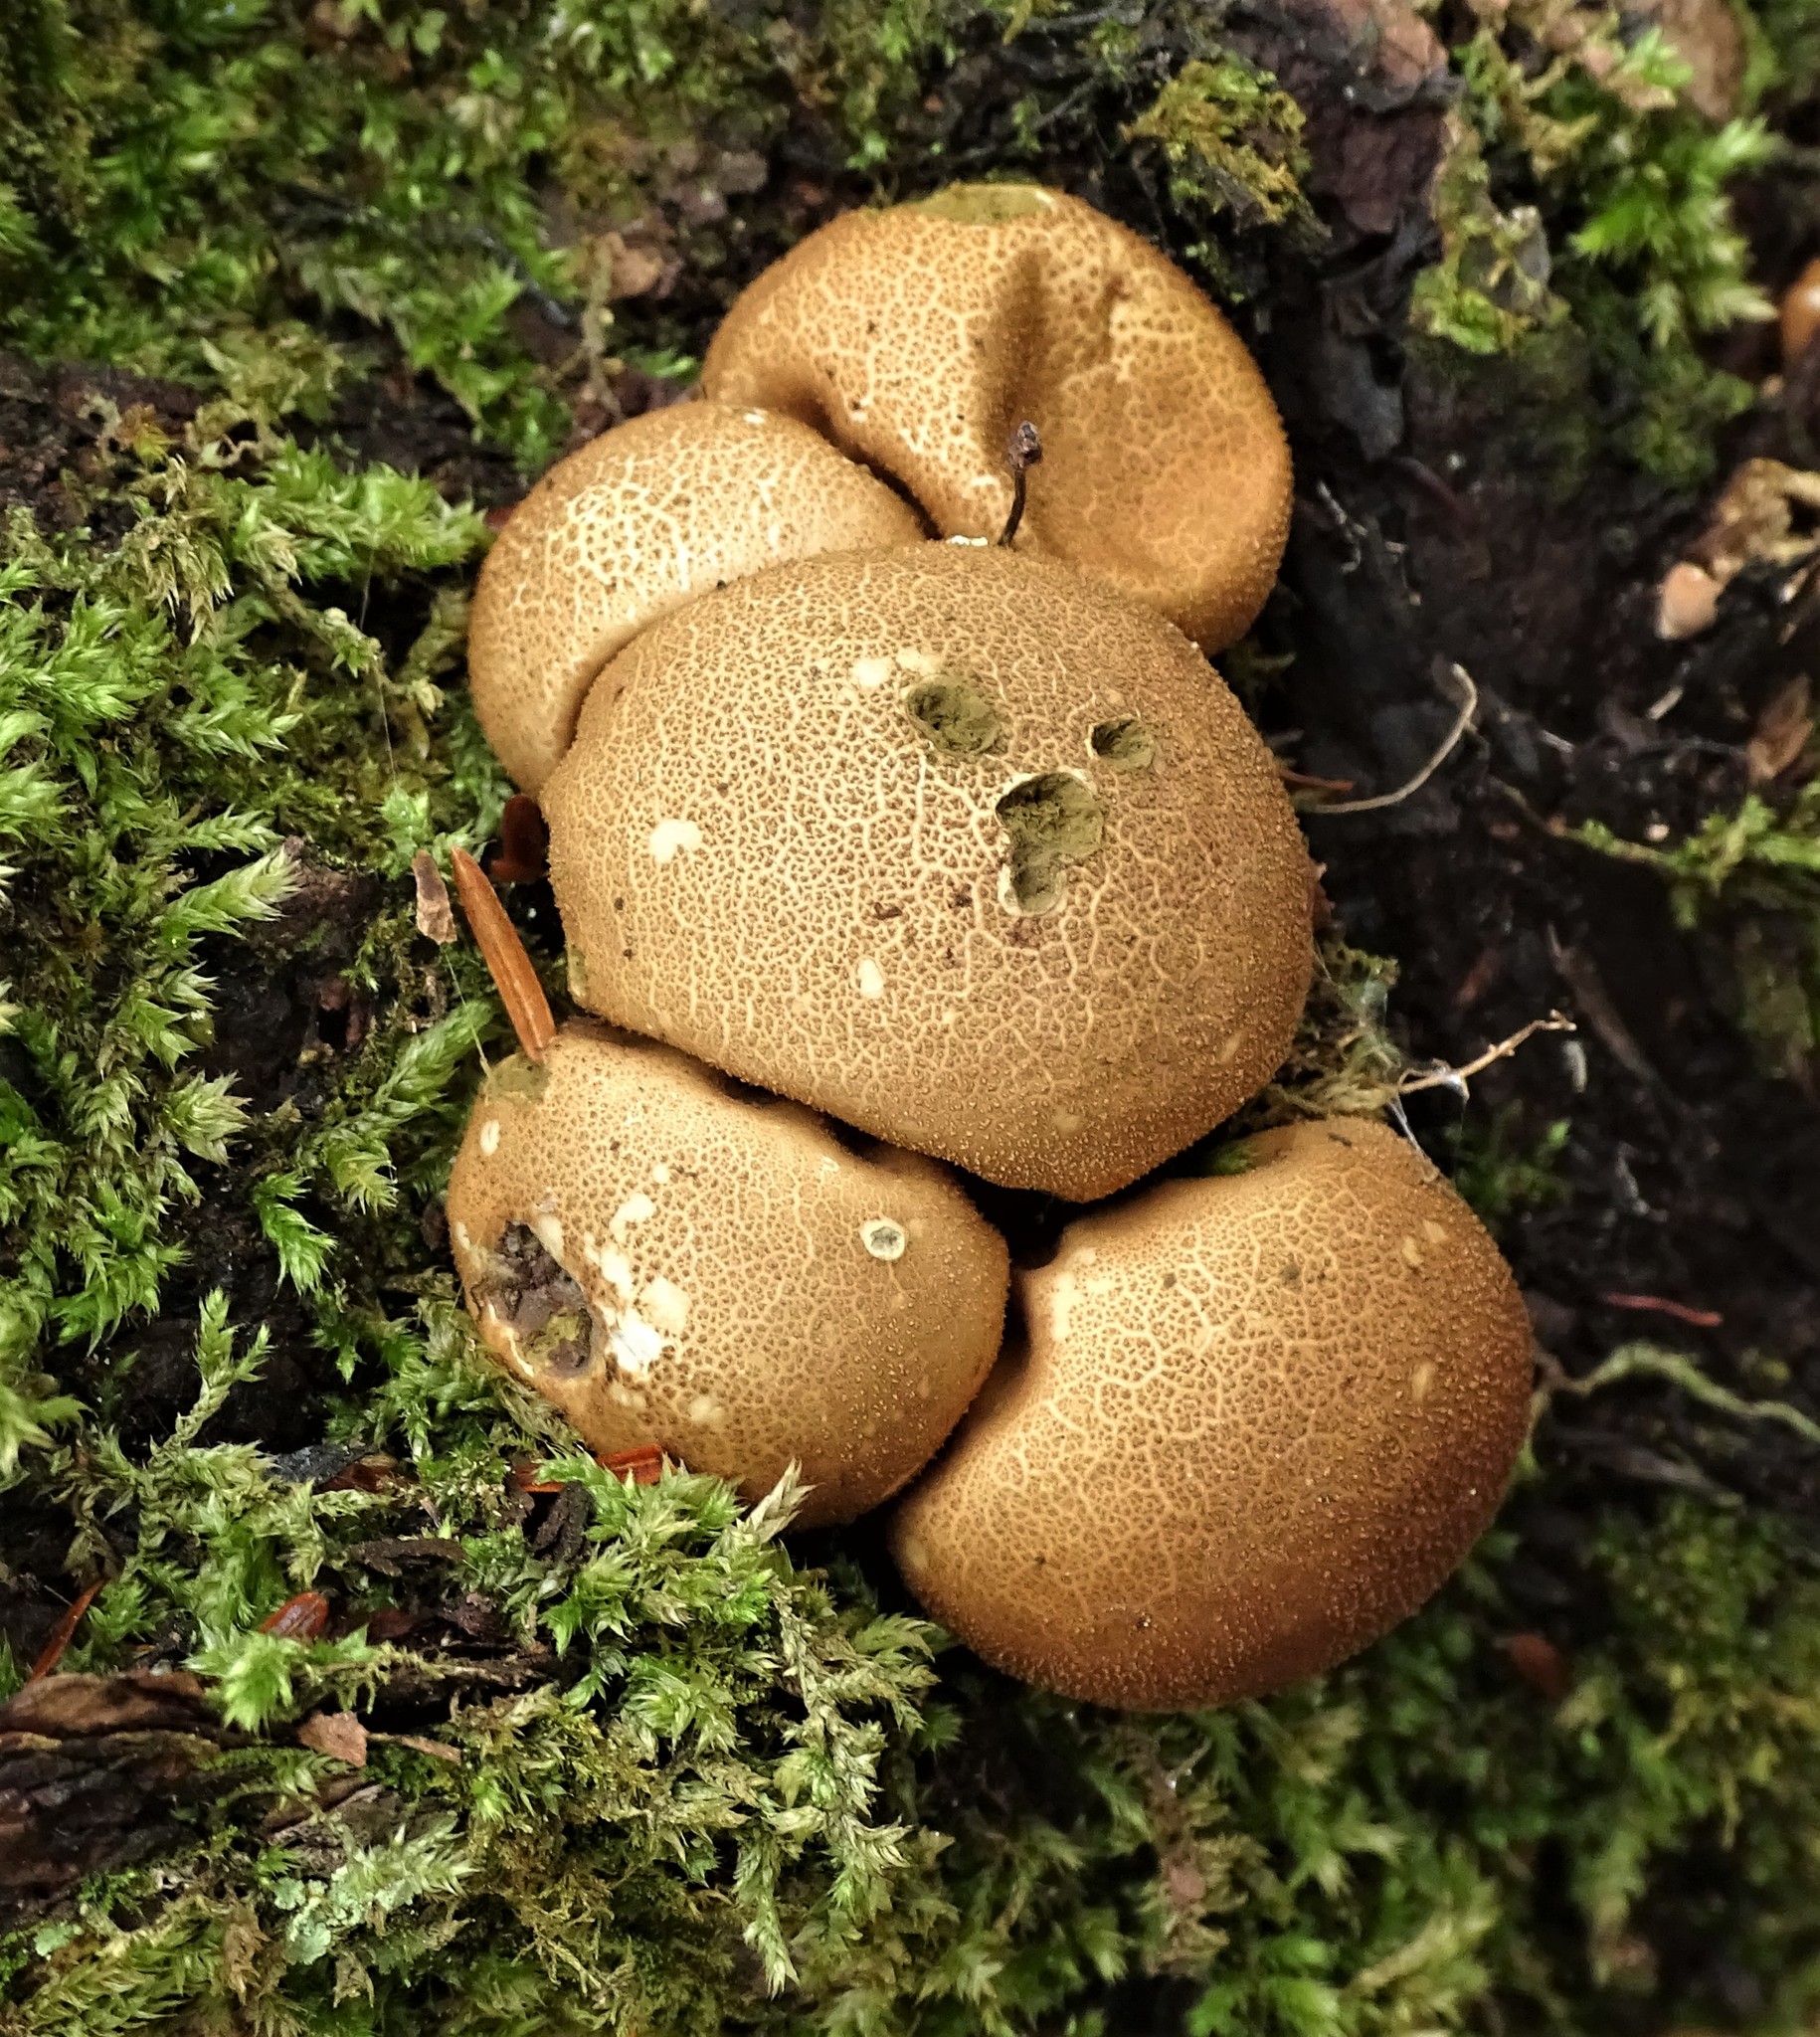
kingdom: Fungi
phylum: Basidiomycota
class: Agaricomycetes
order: Agaricales
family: Lycoperdaceae
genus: Apioperdon
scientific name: Apioperdon pyriforme
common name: Pear-shaped puffball
